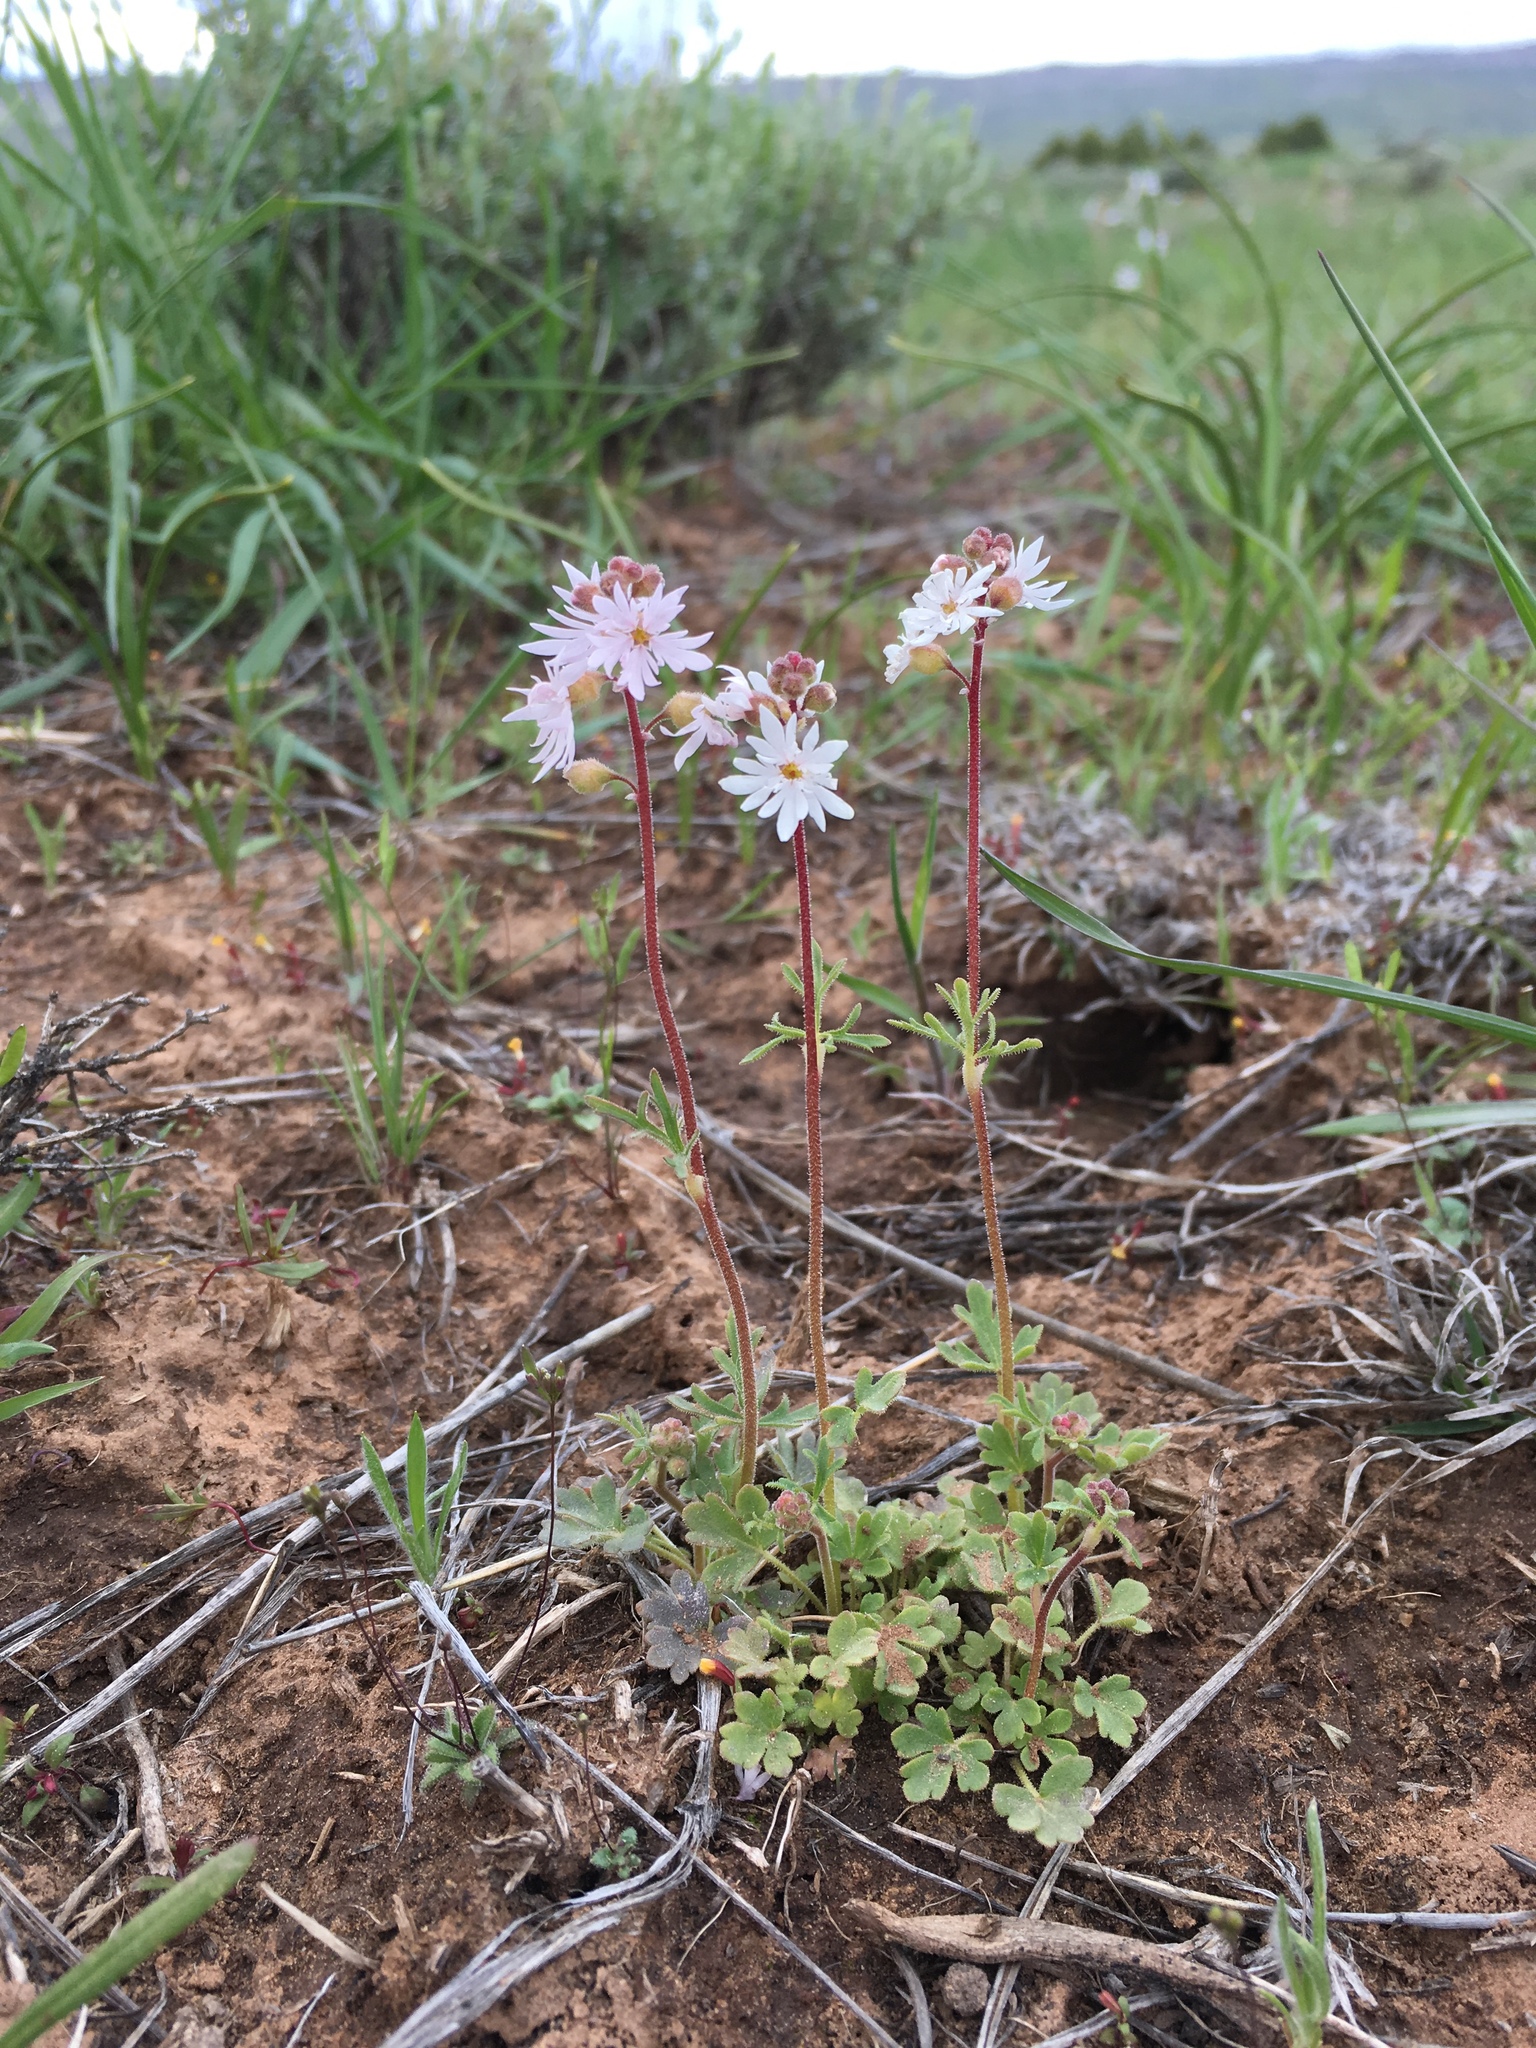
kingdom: Plantae
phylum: Tracheophyta
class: Magnoliopsida
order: Saxifragales
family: Saxifragaceae
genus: Lithophragma
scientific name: Lithophragma tenella
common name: Slender fringe-cup
